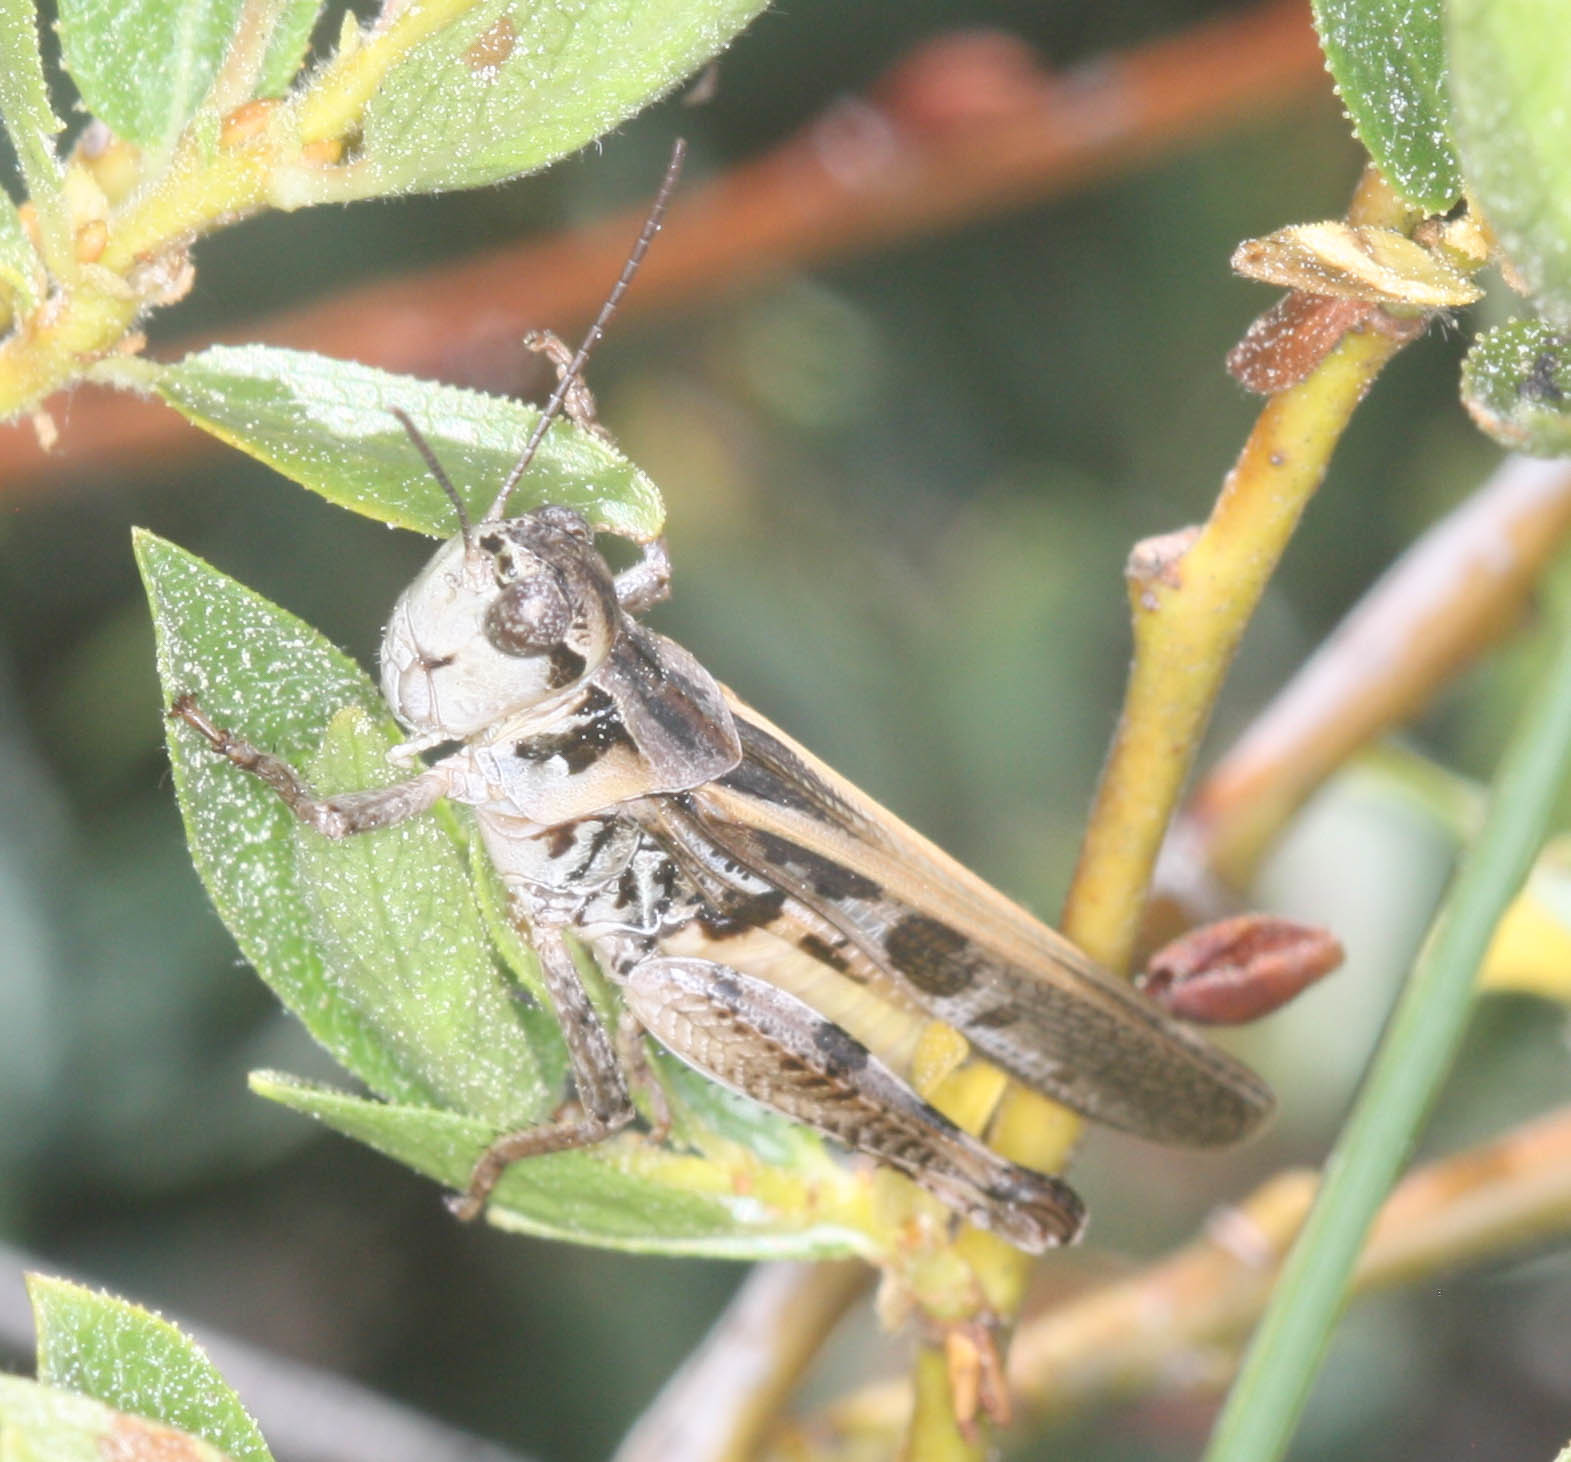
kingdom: Animalia
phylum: Arthropoda
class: Insecta
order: Orthoptera
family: Acrididae
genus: Camnula
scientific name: Camnula pellucida
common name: Clear-winged grasshopper
